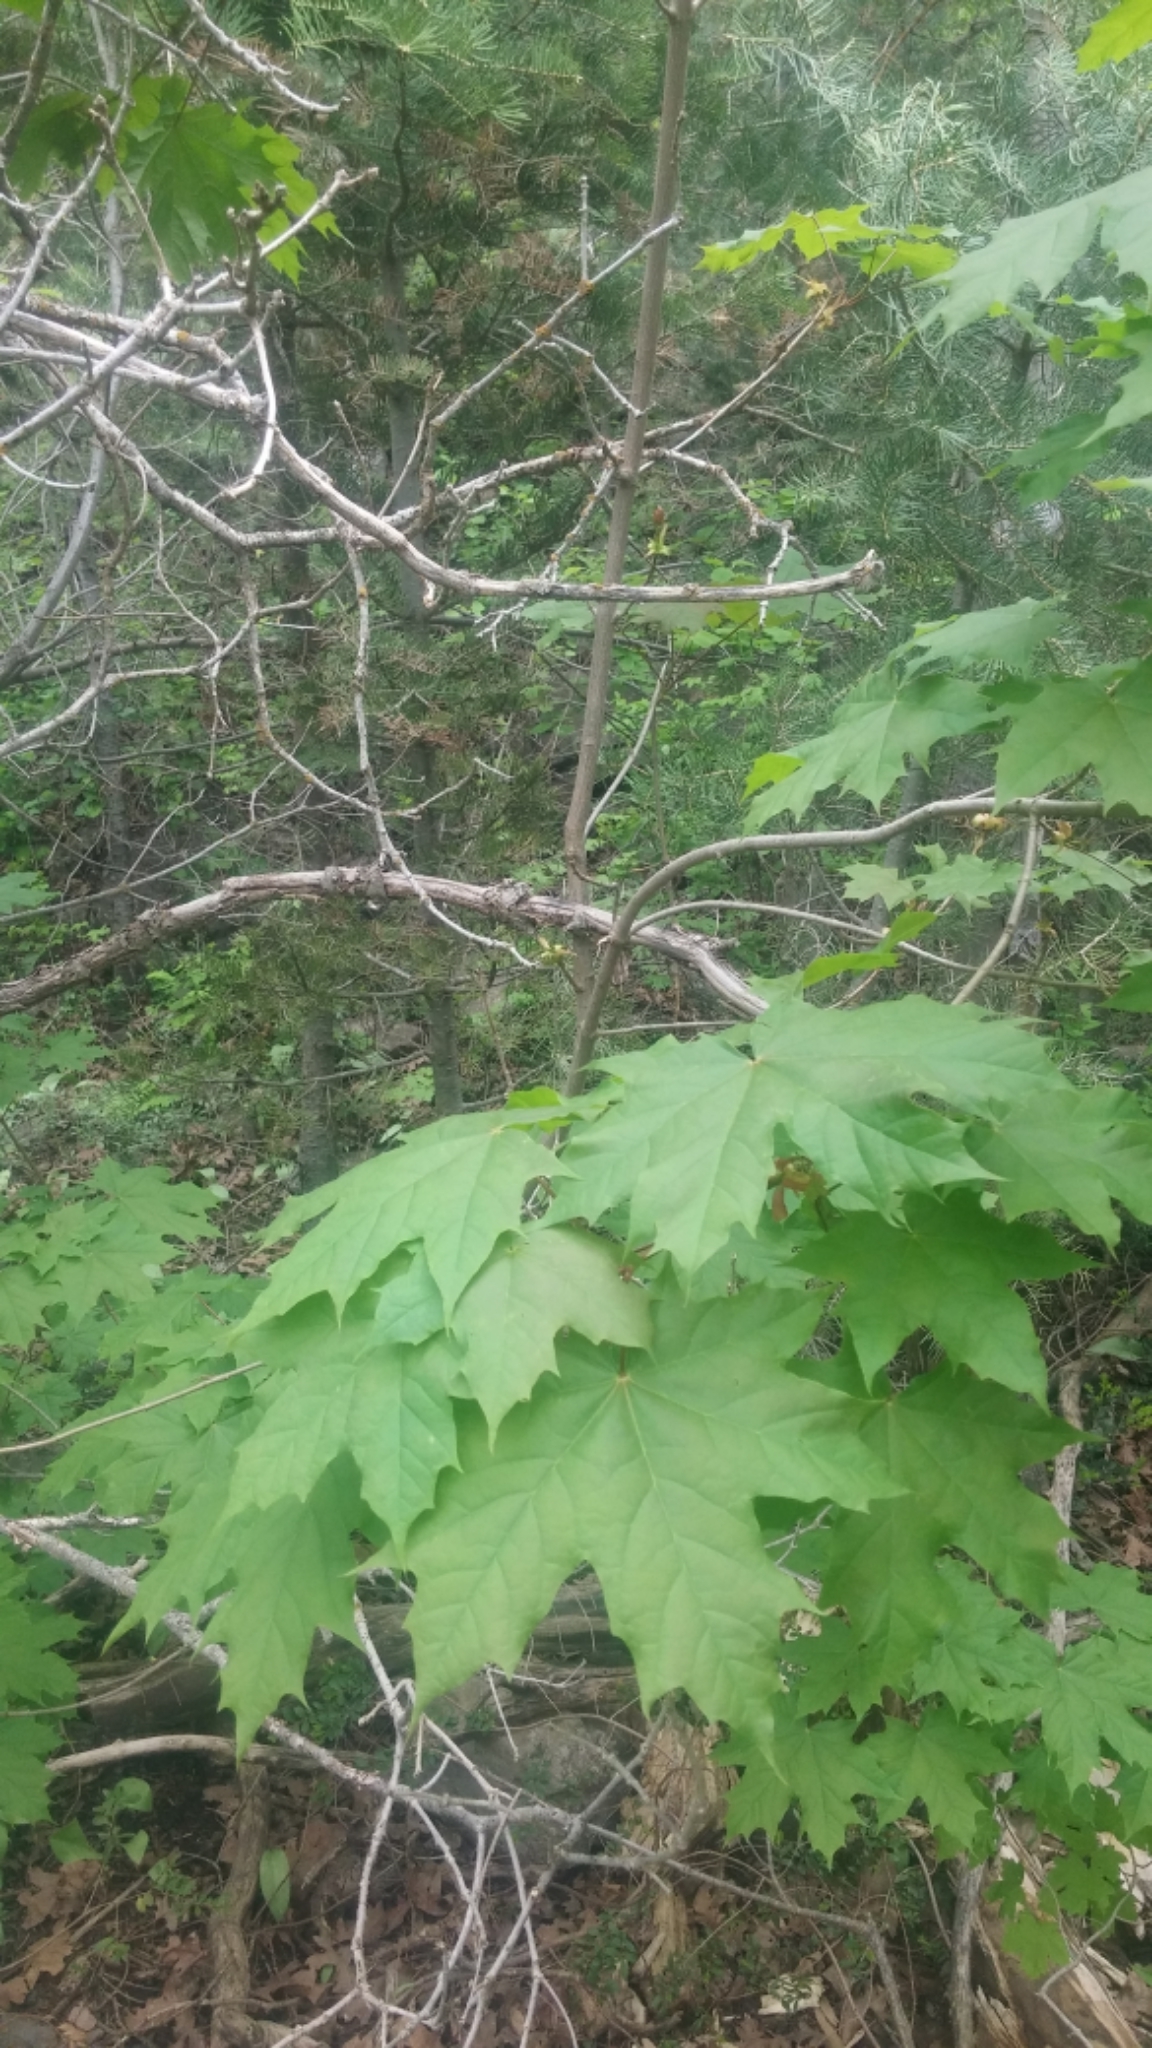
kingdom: Plantae
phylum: Tracheophyta
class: Magnoliopsida
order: Sapindales
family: Sapindaceae
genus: Acer
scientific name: Acer platanoides
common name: Norway maple
